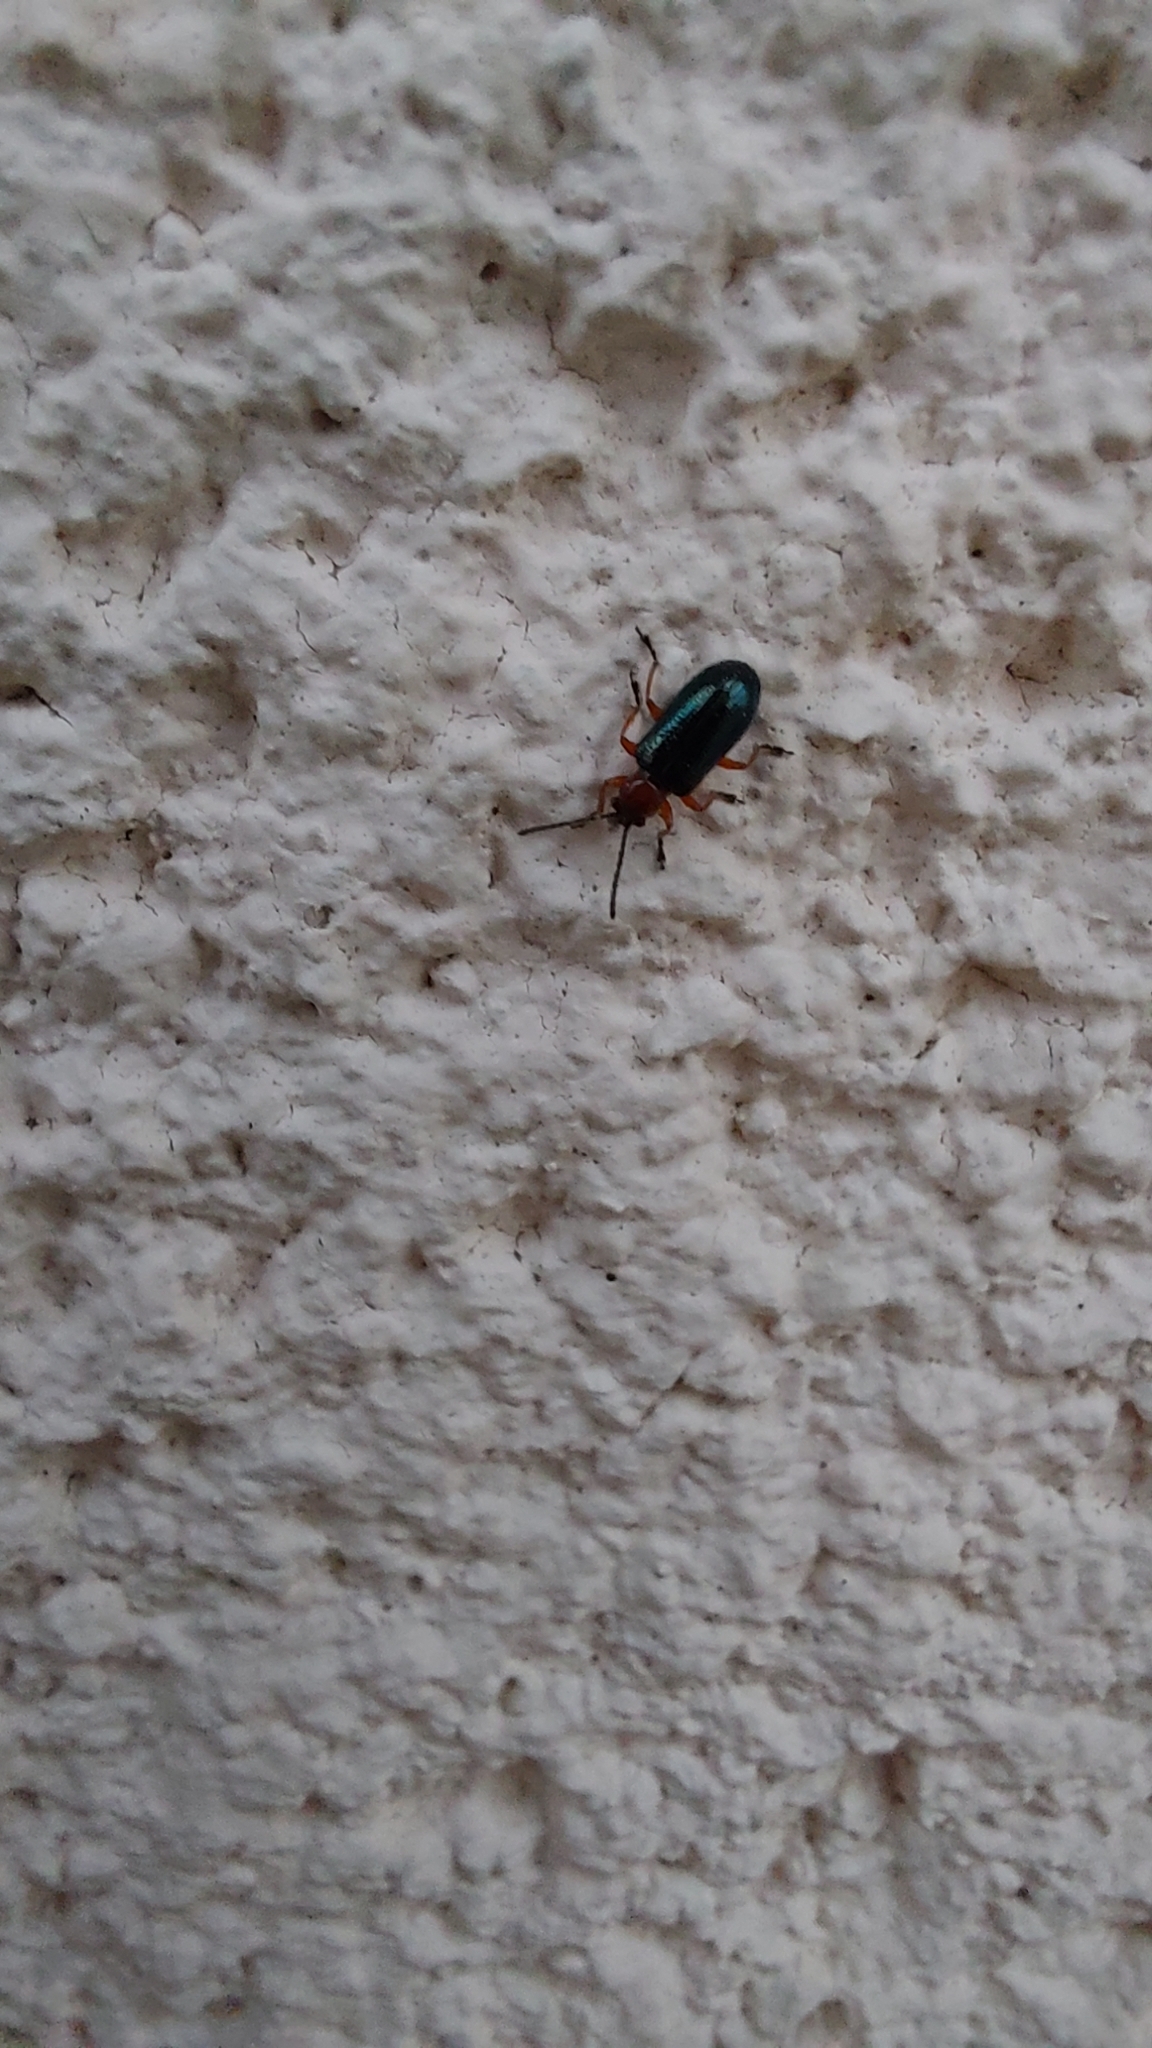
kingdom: Animalia
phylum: Arthropoda
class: Insecta
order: Coleoptera
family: Chrysomelidae
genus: Oulema
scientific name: Oulema
